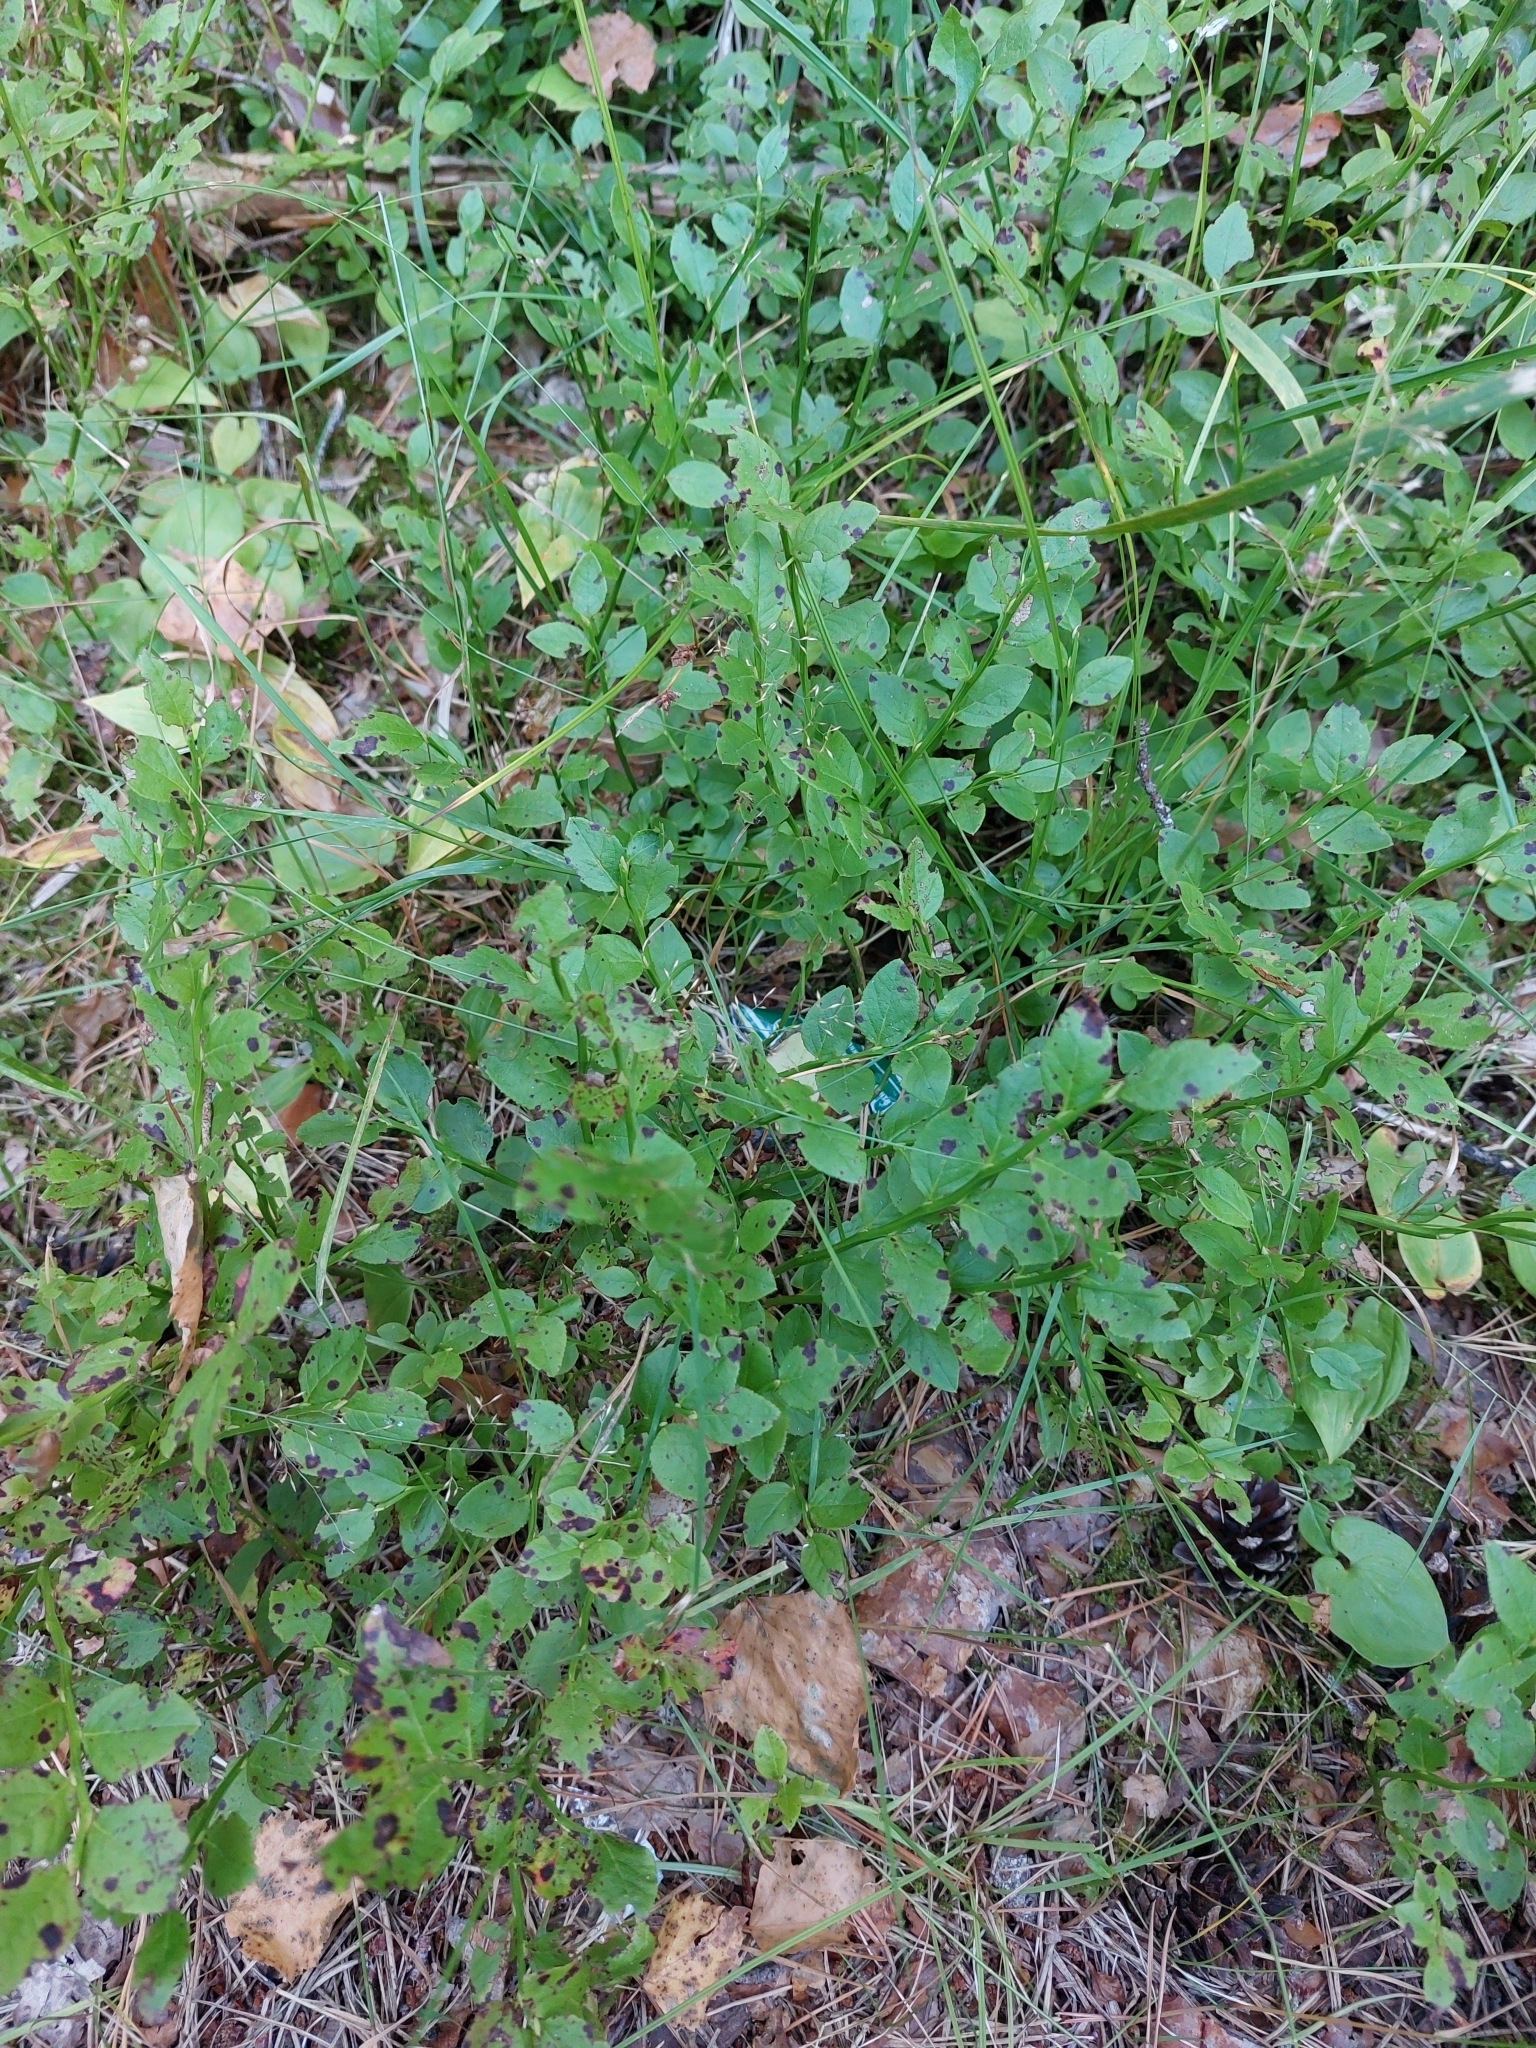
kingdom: Plantae
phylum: Tracheophyta
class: Magnoliopsida
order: Ericales
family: Ericaceae
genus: Vaccinium
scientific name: Vaccinium myrtillus
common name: Bilberry
